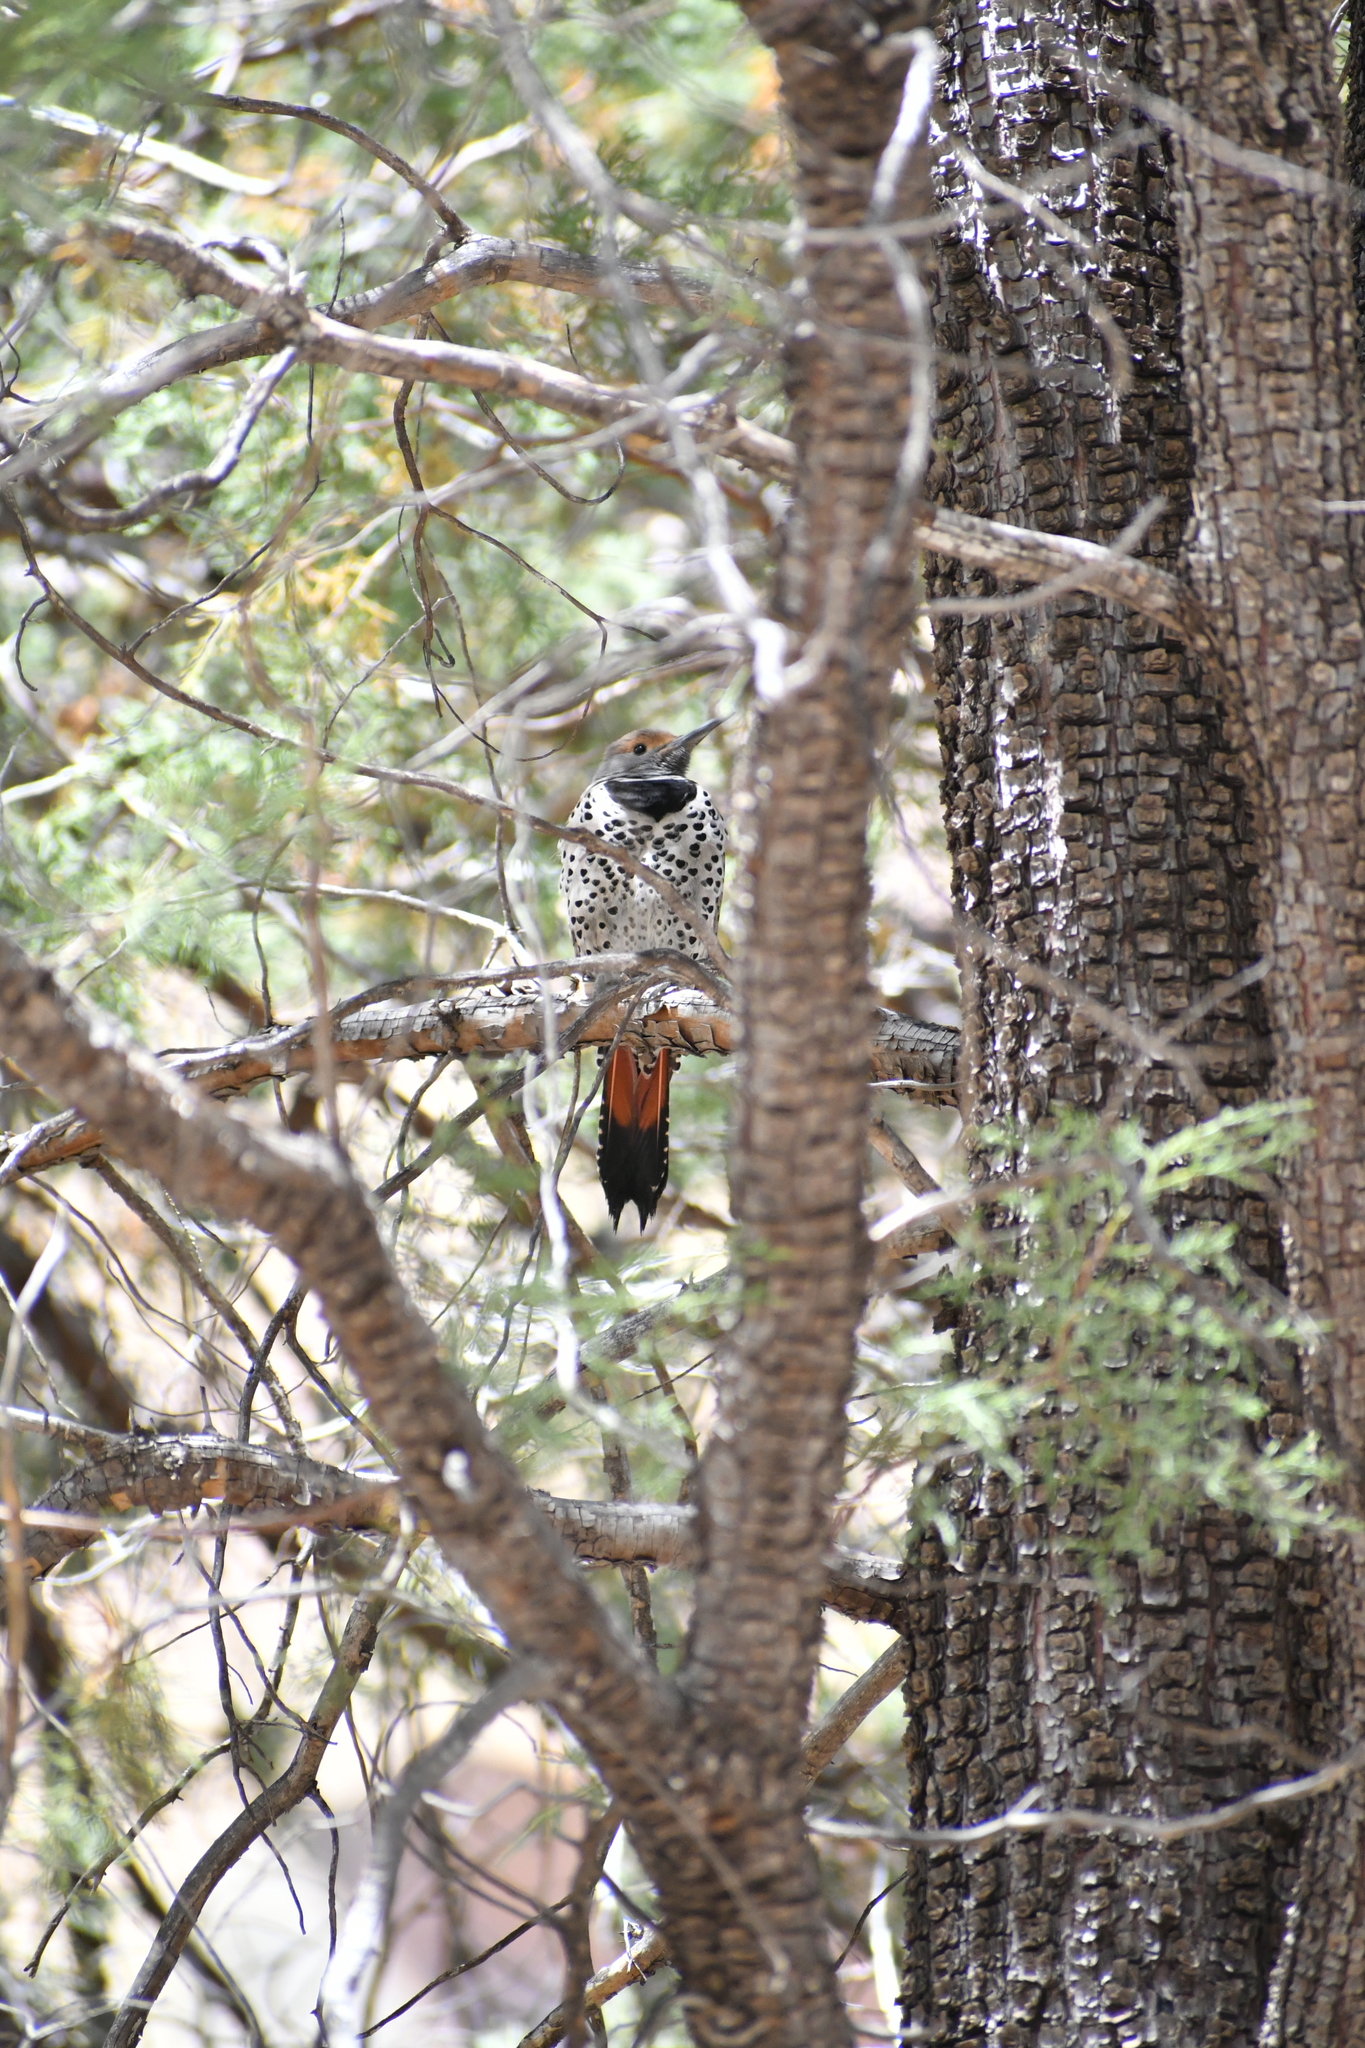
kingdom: Animalia
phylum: Chordata
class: Aves
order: Piciformes
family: Picidae
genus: Colaptes
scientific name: Colaptes auratus
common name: Northern flicker
